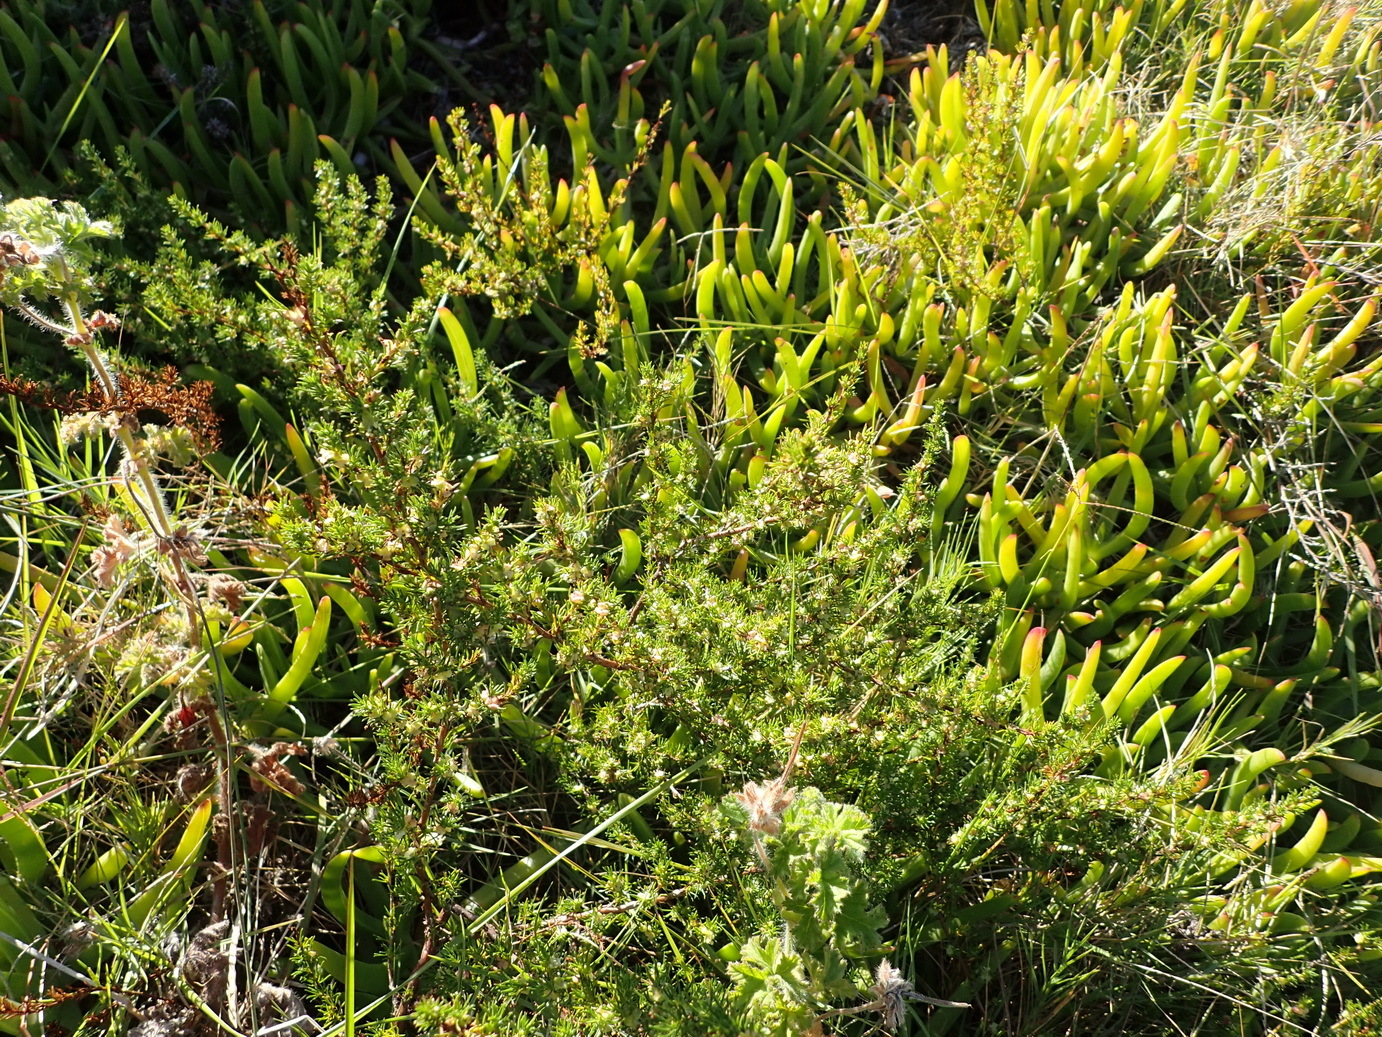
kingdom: Plantae
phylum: Tracheophyta
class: Magnoliopsida
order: Rosales
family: Rosaceae
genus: Cliffortia
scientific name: Cliffortia filifolia
